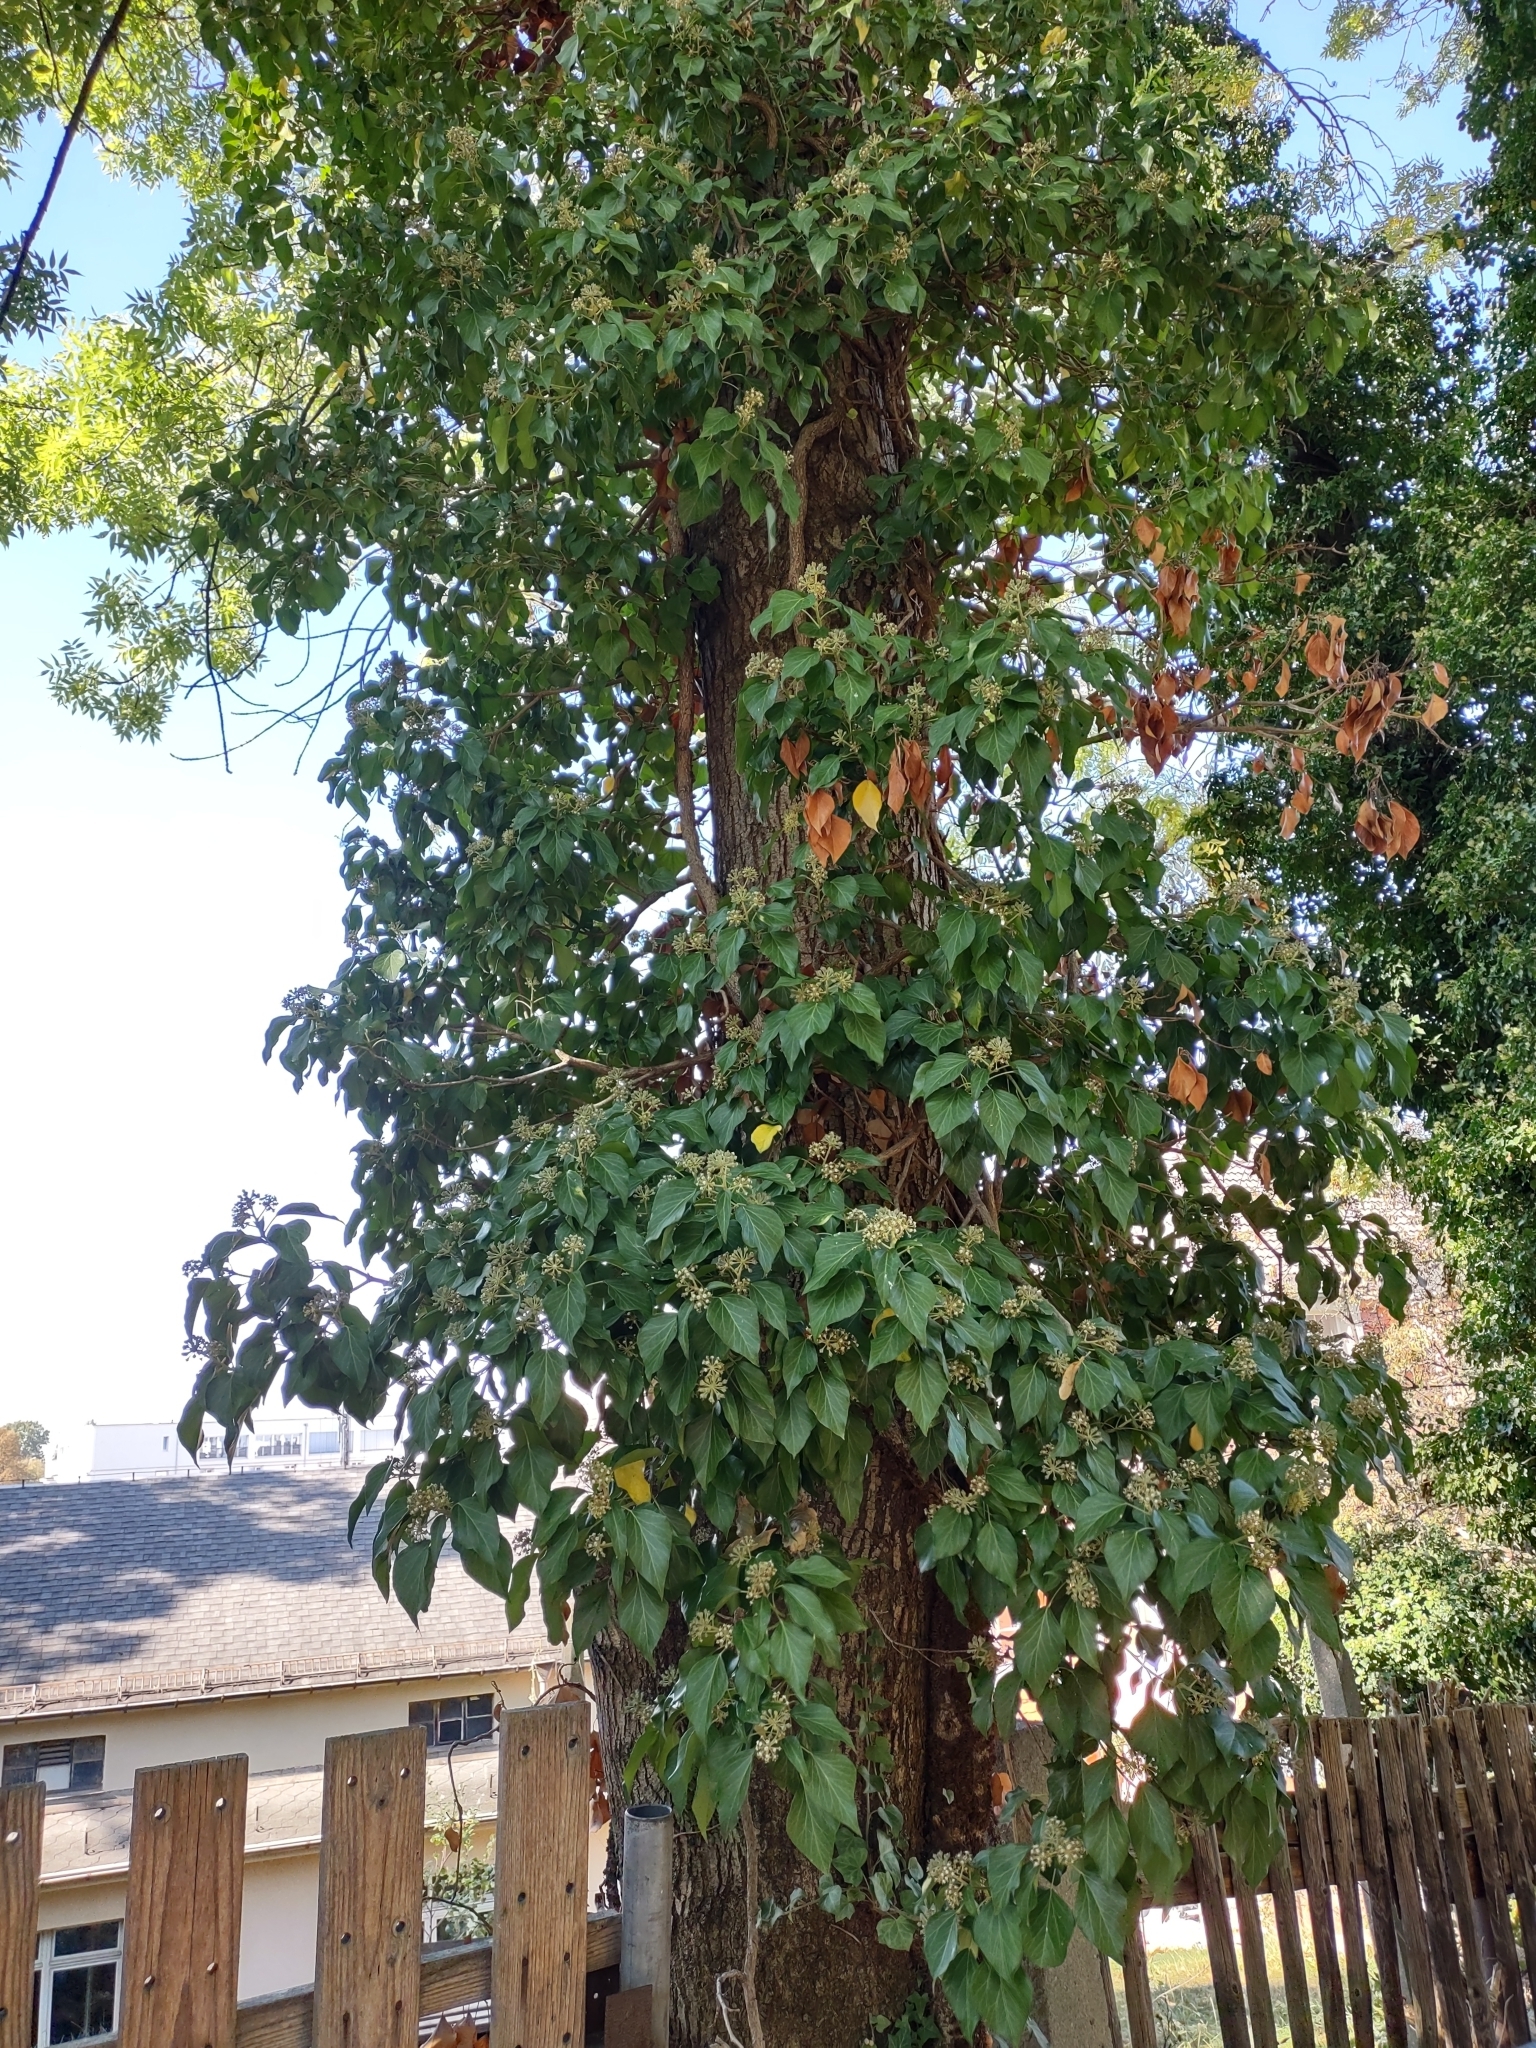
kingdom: Plantae
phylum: Tracheophyta
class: Magnoliopsida
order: Apiales
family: Araliaceae
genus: Hedera
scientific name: Hedera helix
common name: Ivy
